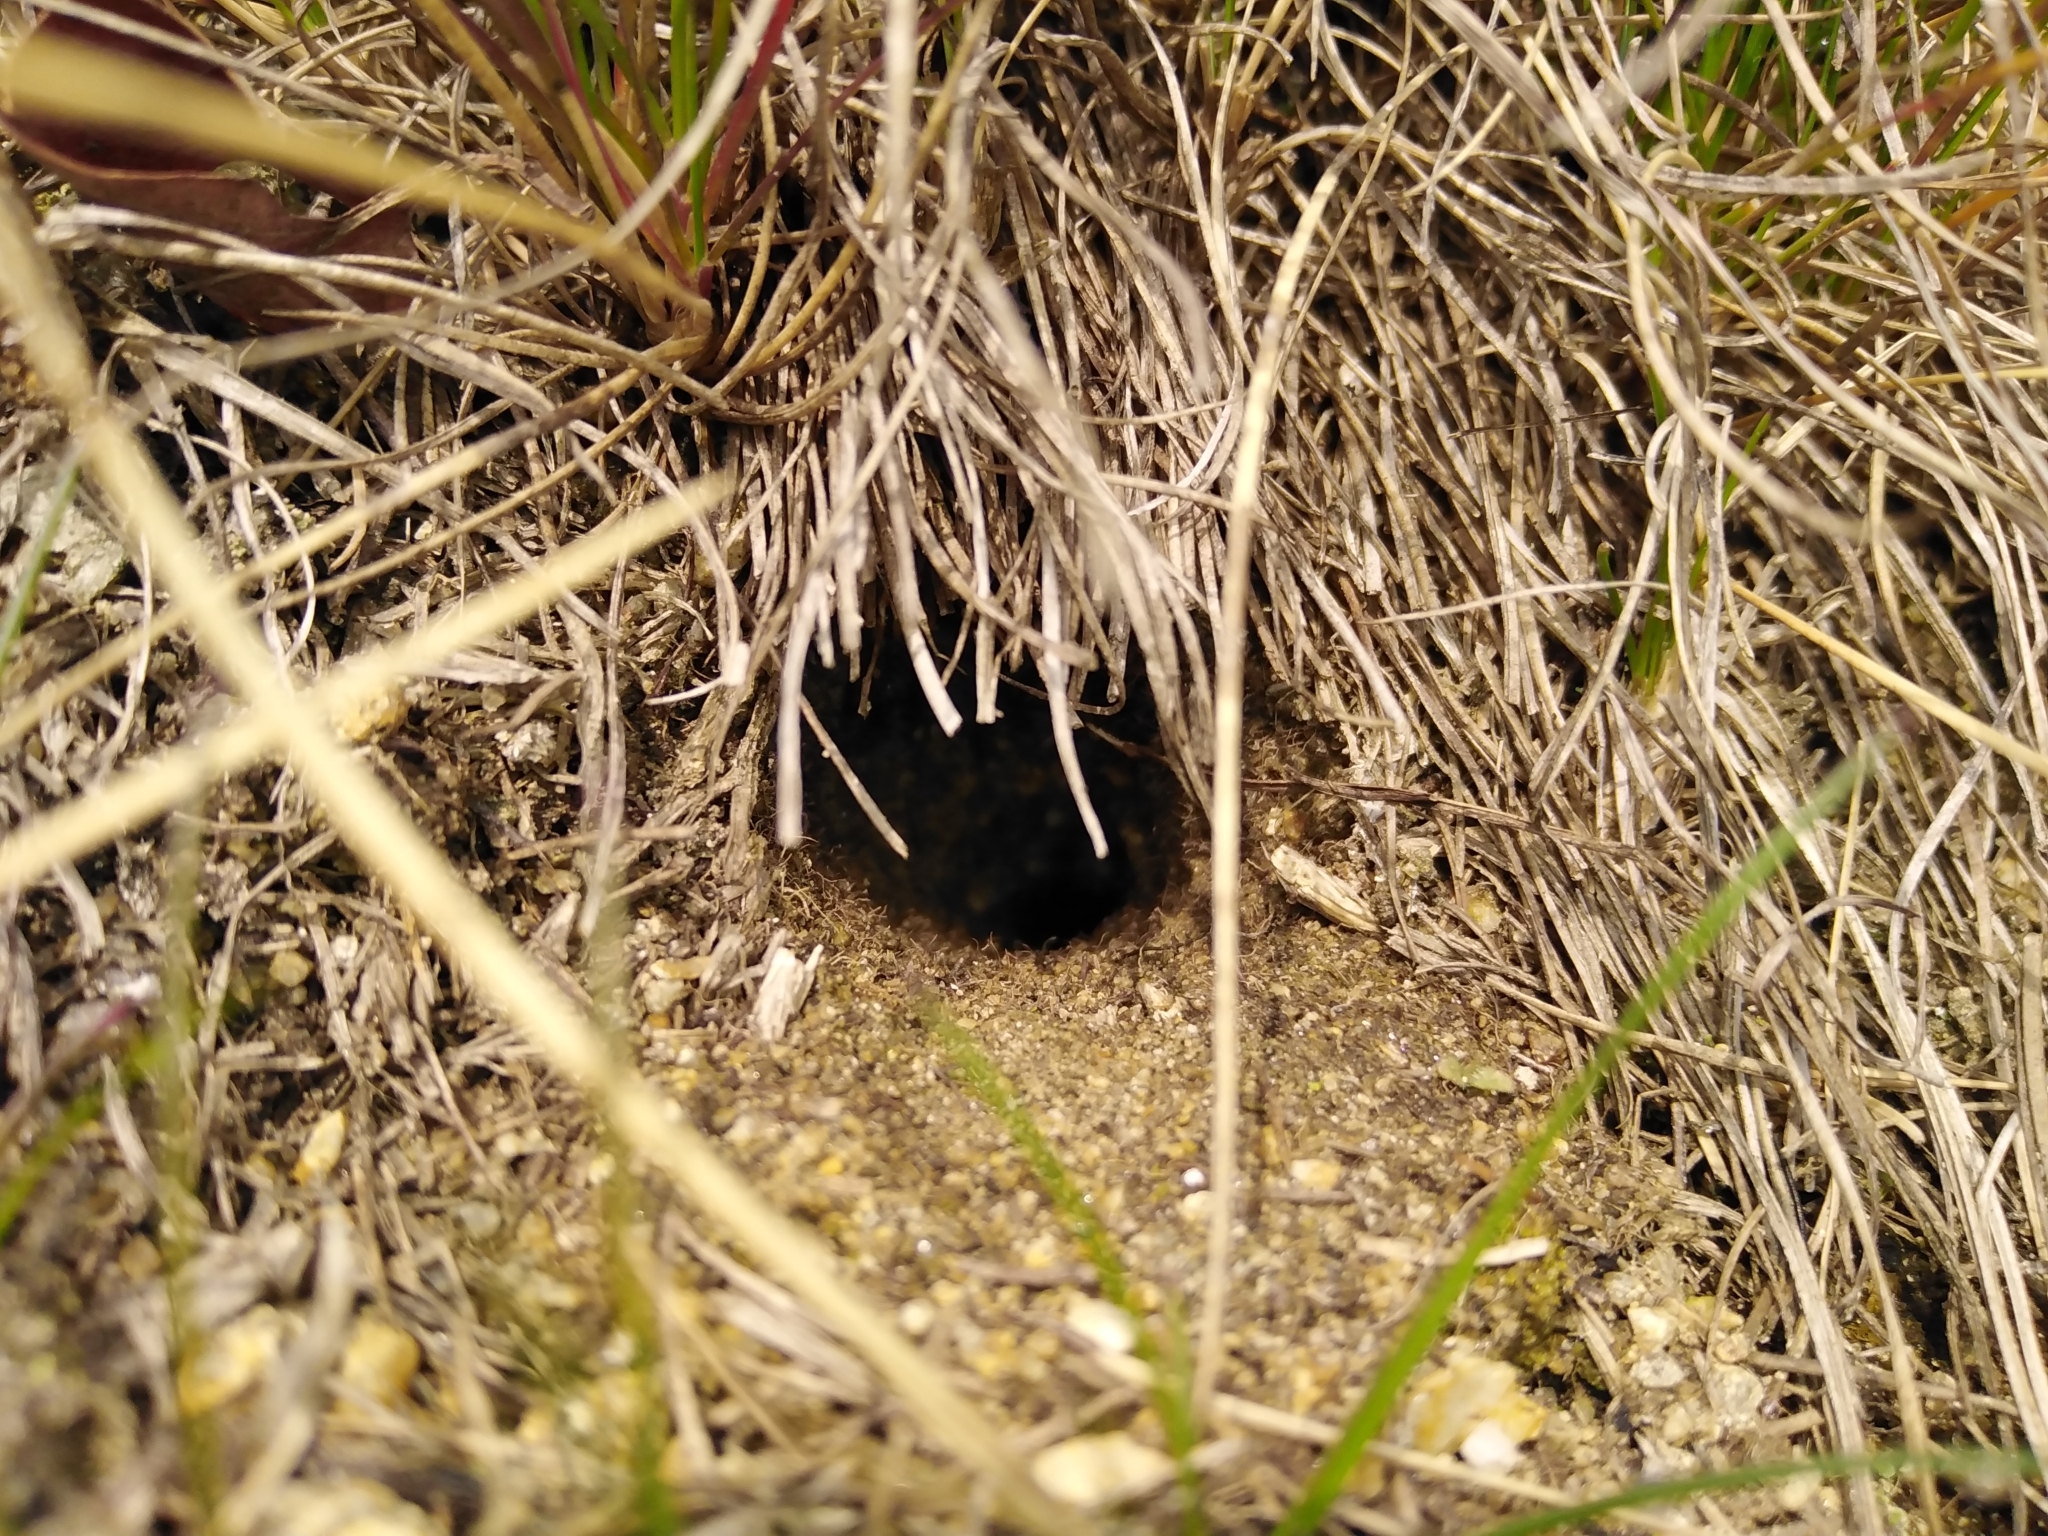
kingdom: Animalia
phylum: Arthropoda
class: Insecta
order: Orthoptera
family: Gryllidae
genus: Gryllus
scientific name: Gryllus campestris
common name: Field cricket
